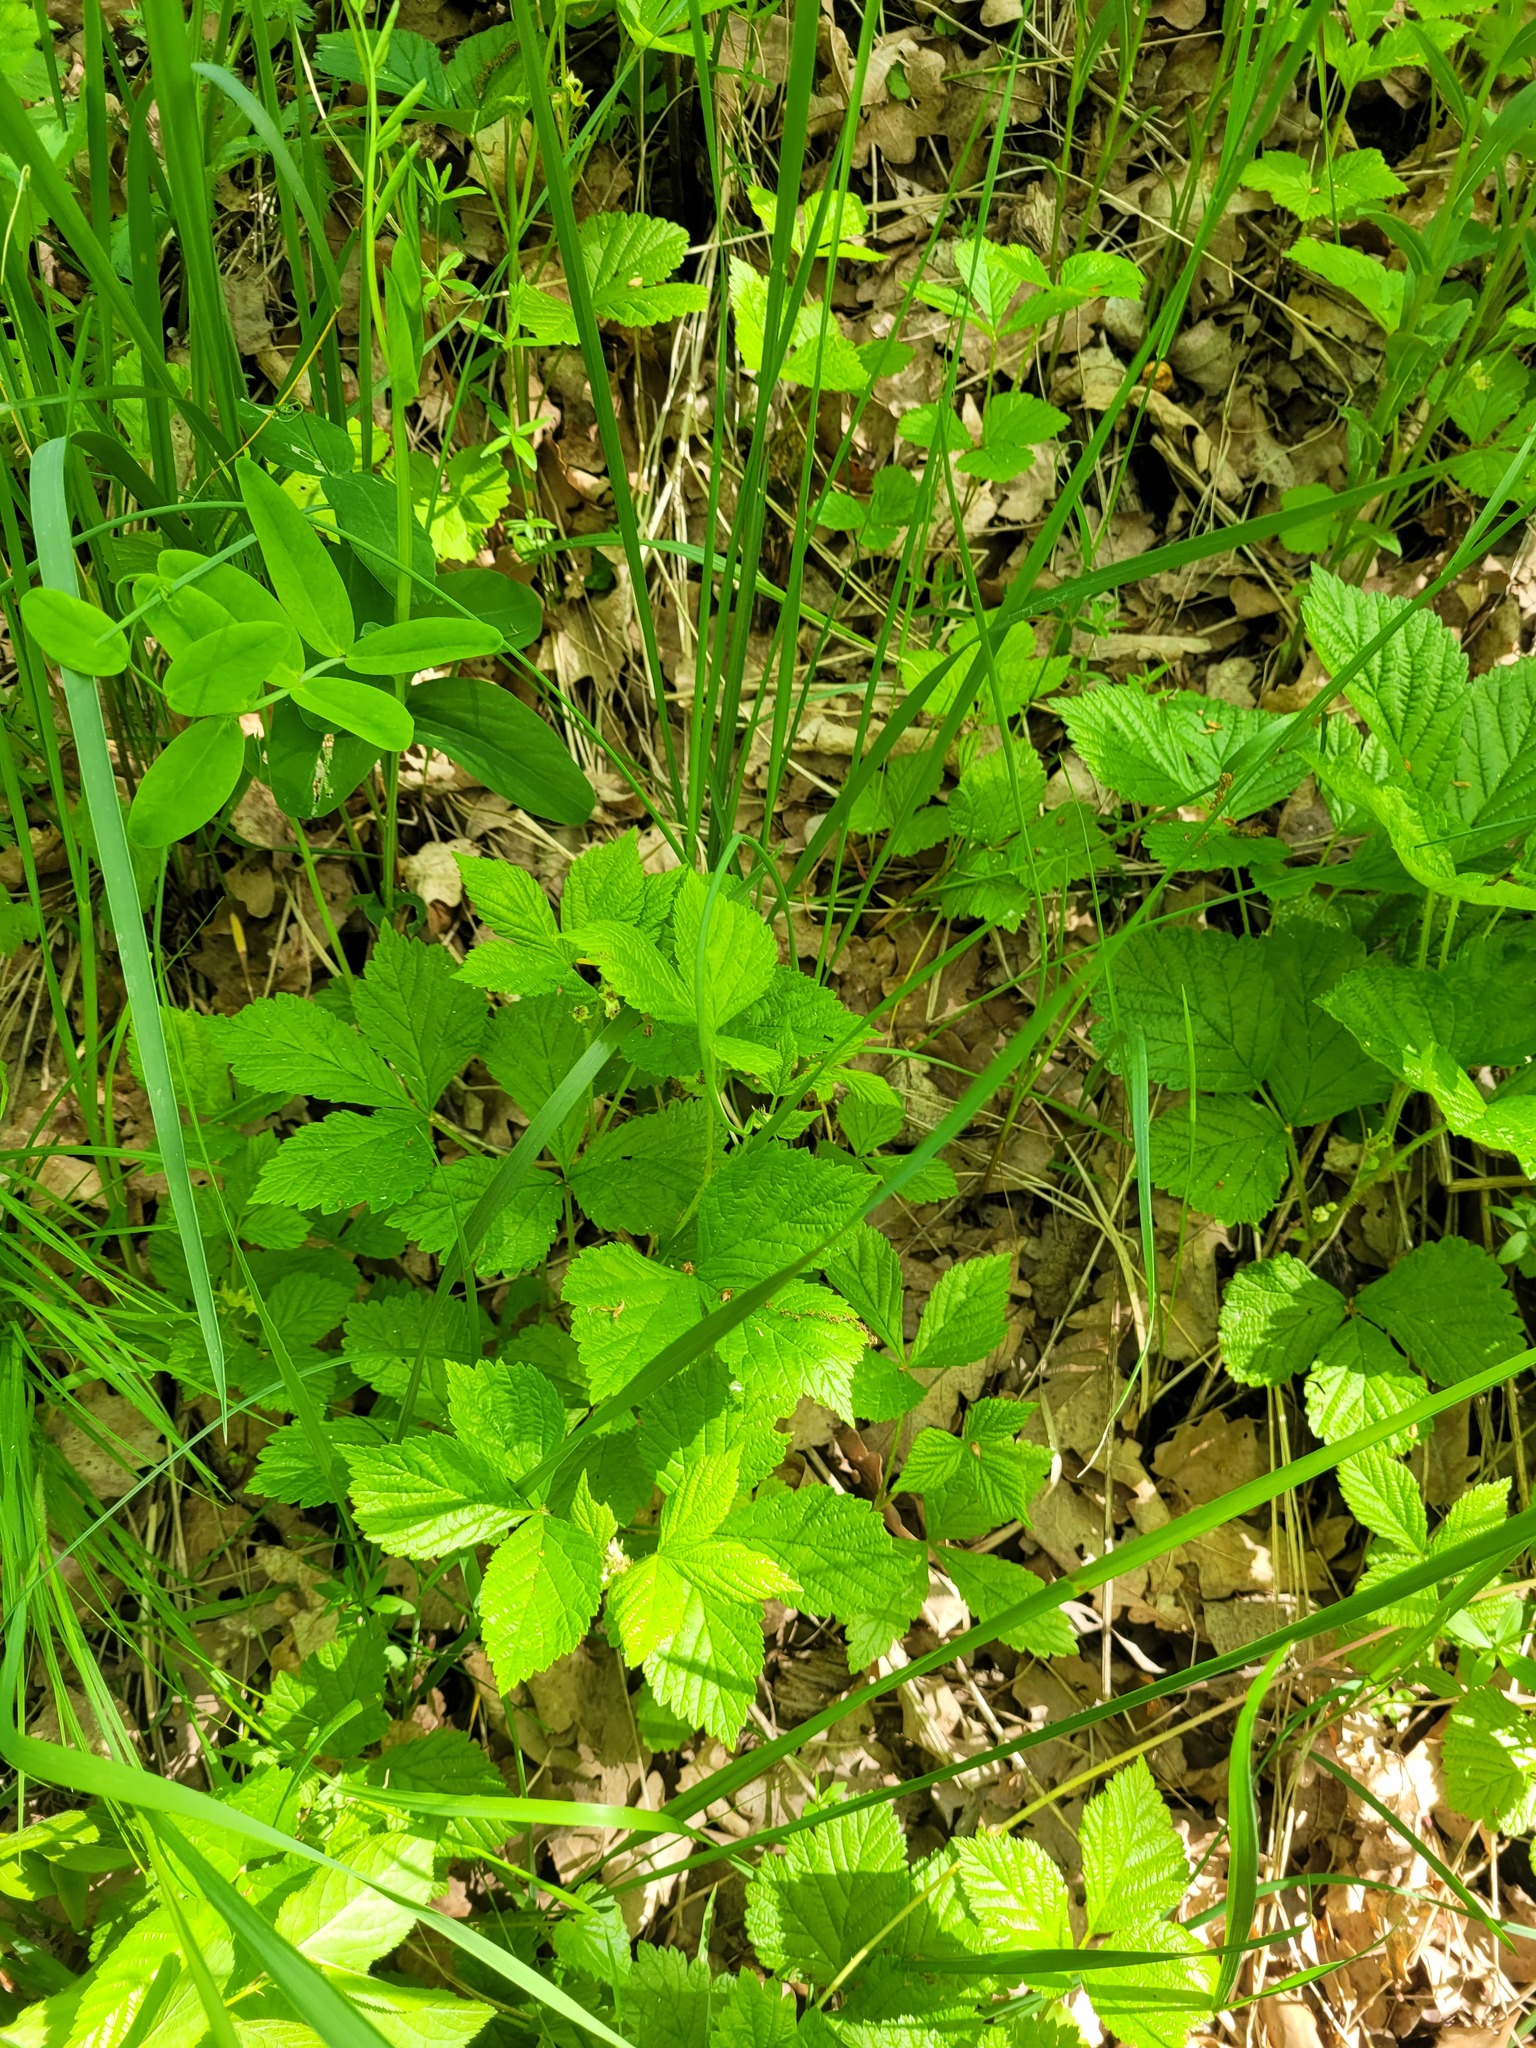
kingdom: Plantae
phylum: Tracheophyta
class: Magnoliopsida
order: Rosales
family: Rosaceae
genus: Rubus
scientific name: Rubus saxatilis
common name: Stone bramble
